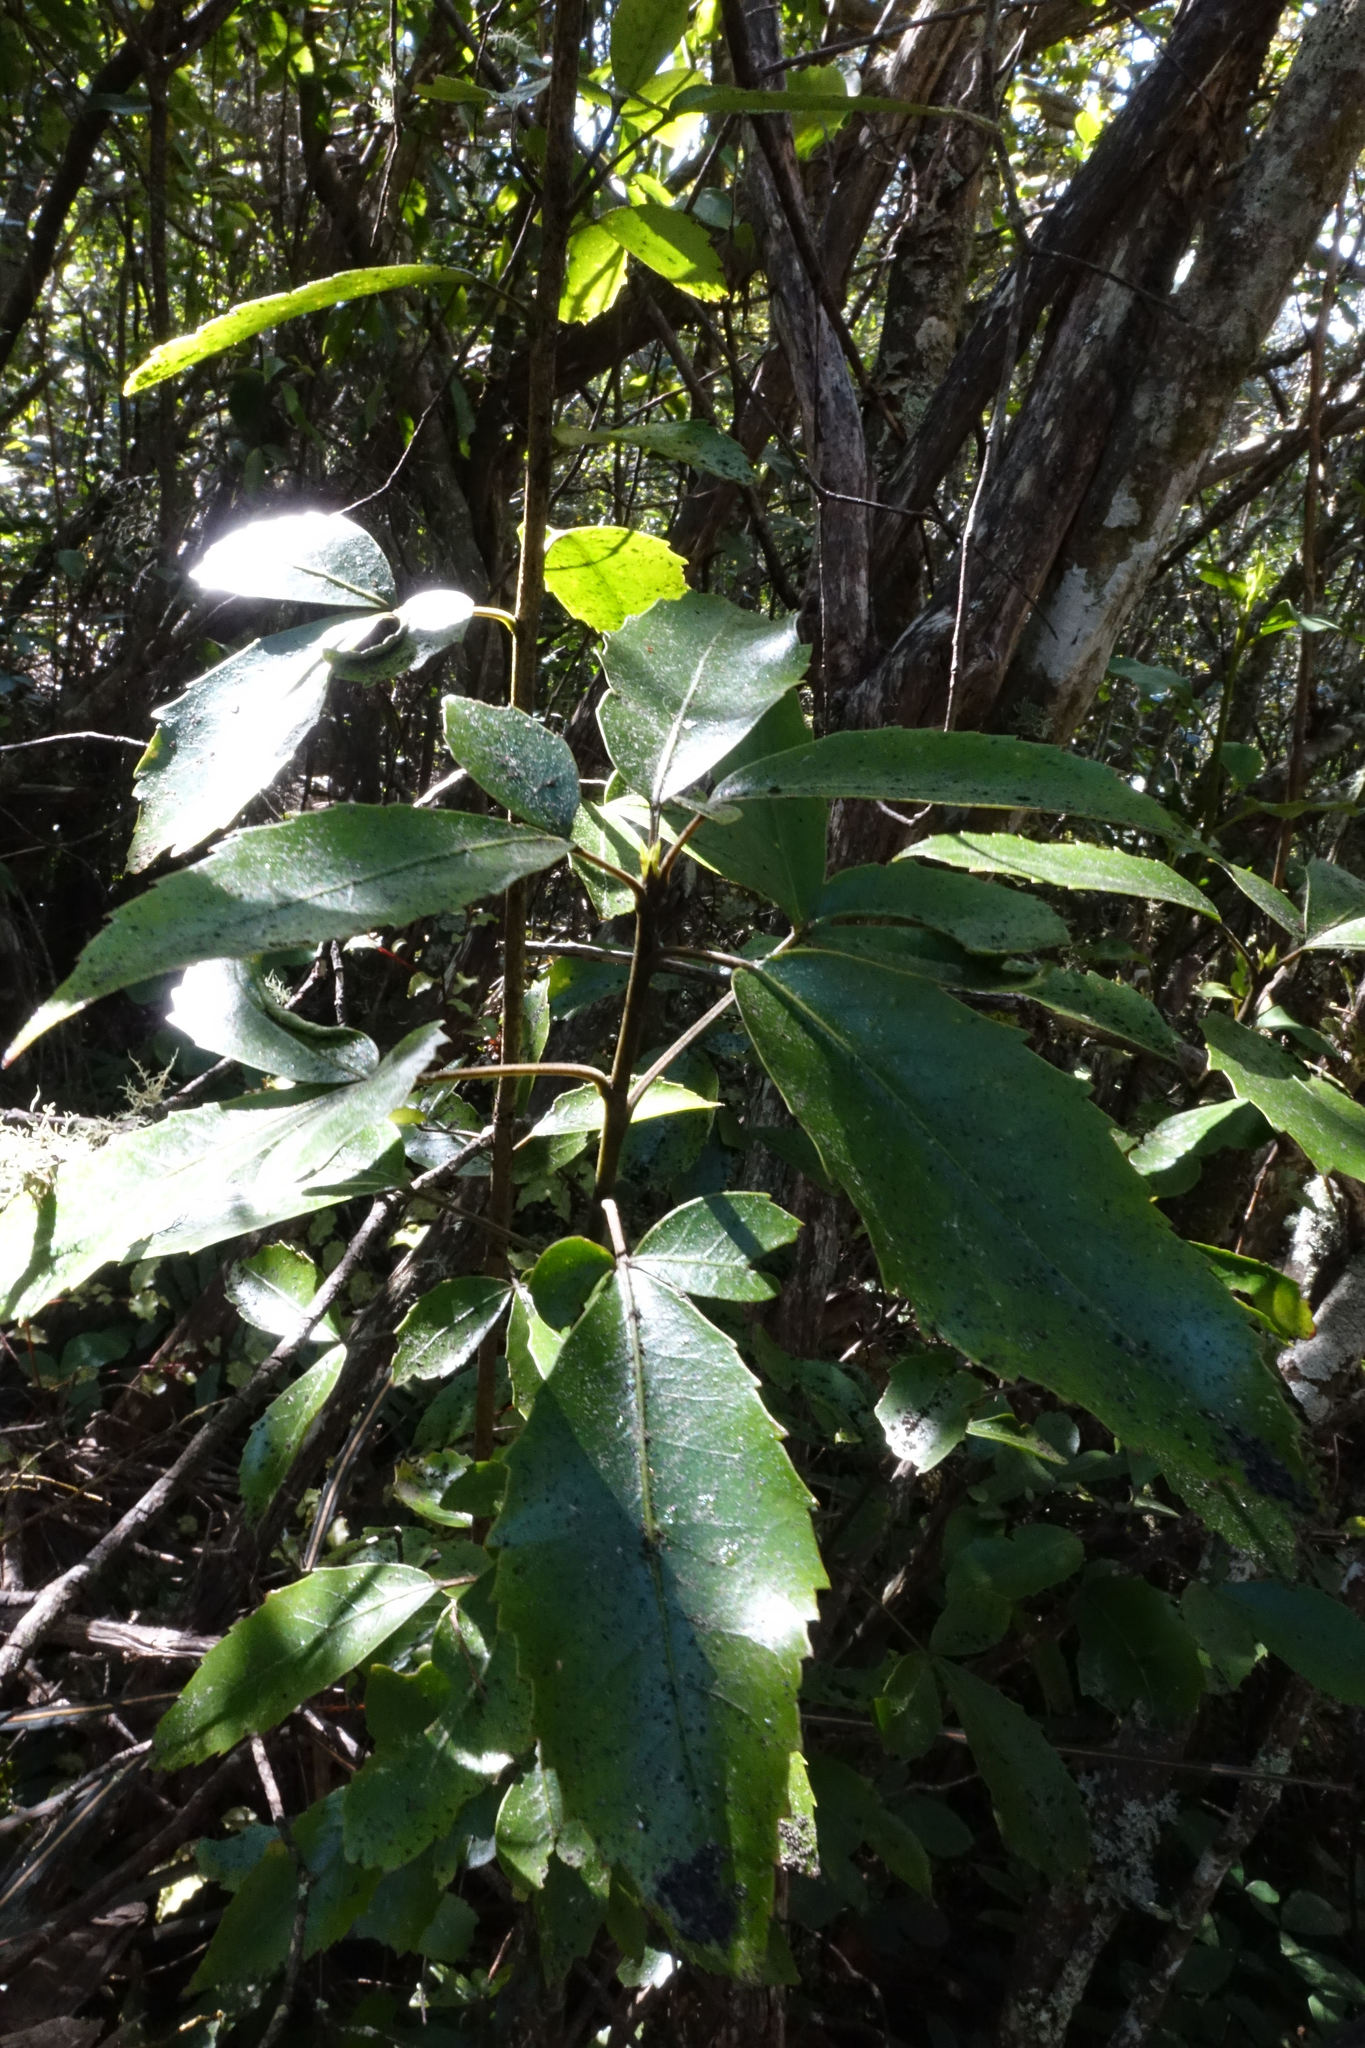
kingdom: Plantae
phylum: Tracheophyta
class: Magnoliopsida
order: Apiales
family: Araliaceae
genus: Raukaua
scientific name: Raukaua simplex
